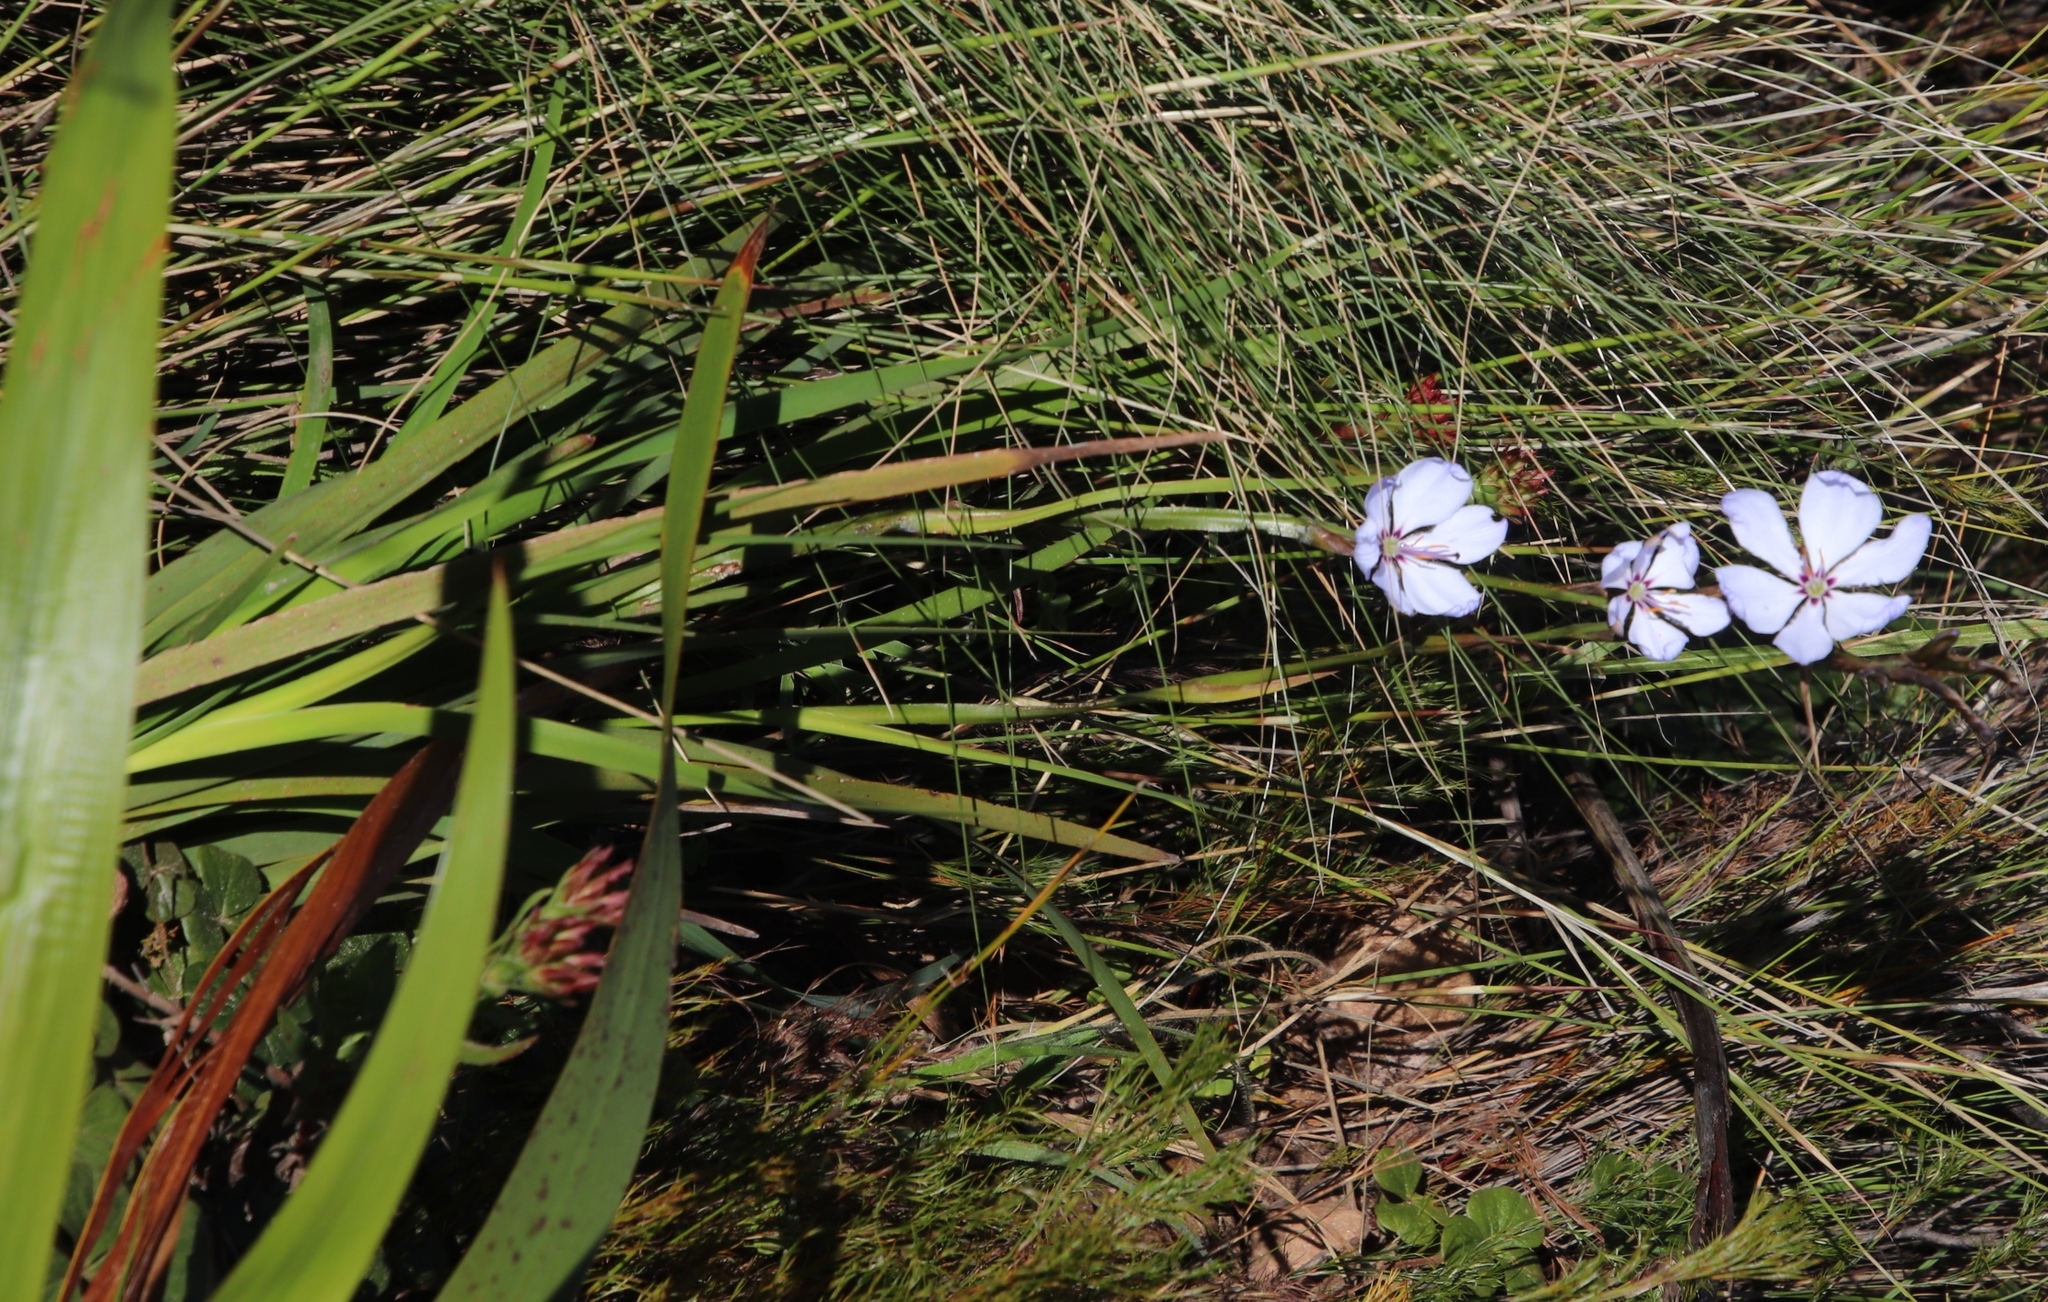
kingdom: Plantae
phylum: Tracheophyta
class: Liliopsida
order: Asparagales
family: Iridaceae
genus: Aristea
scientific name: Aristea spiralis
